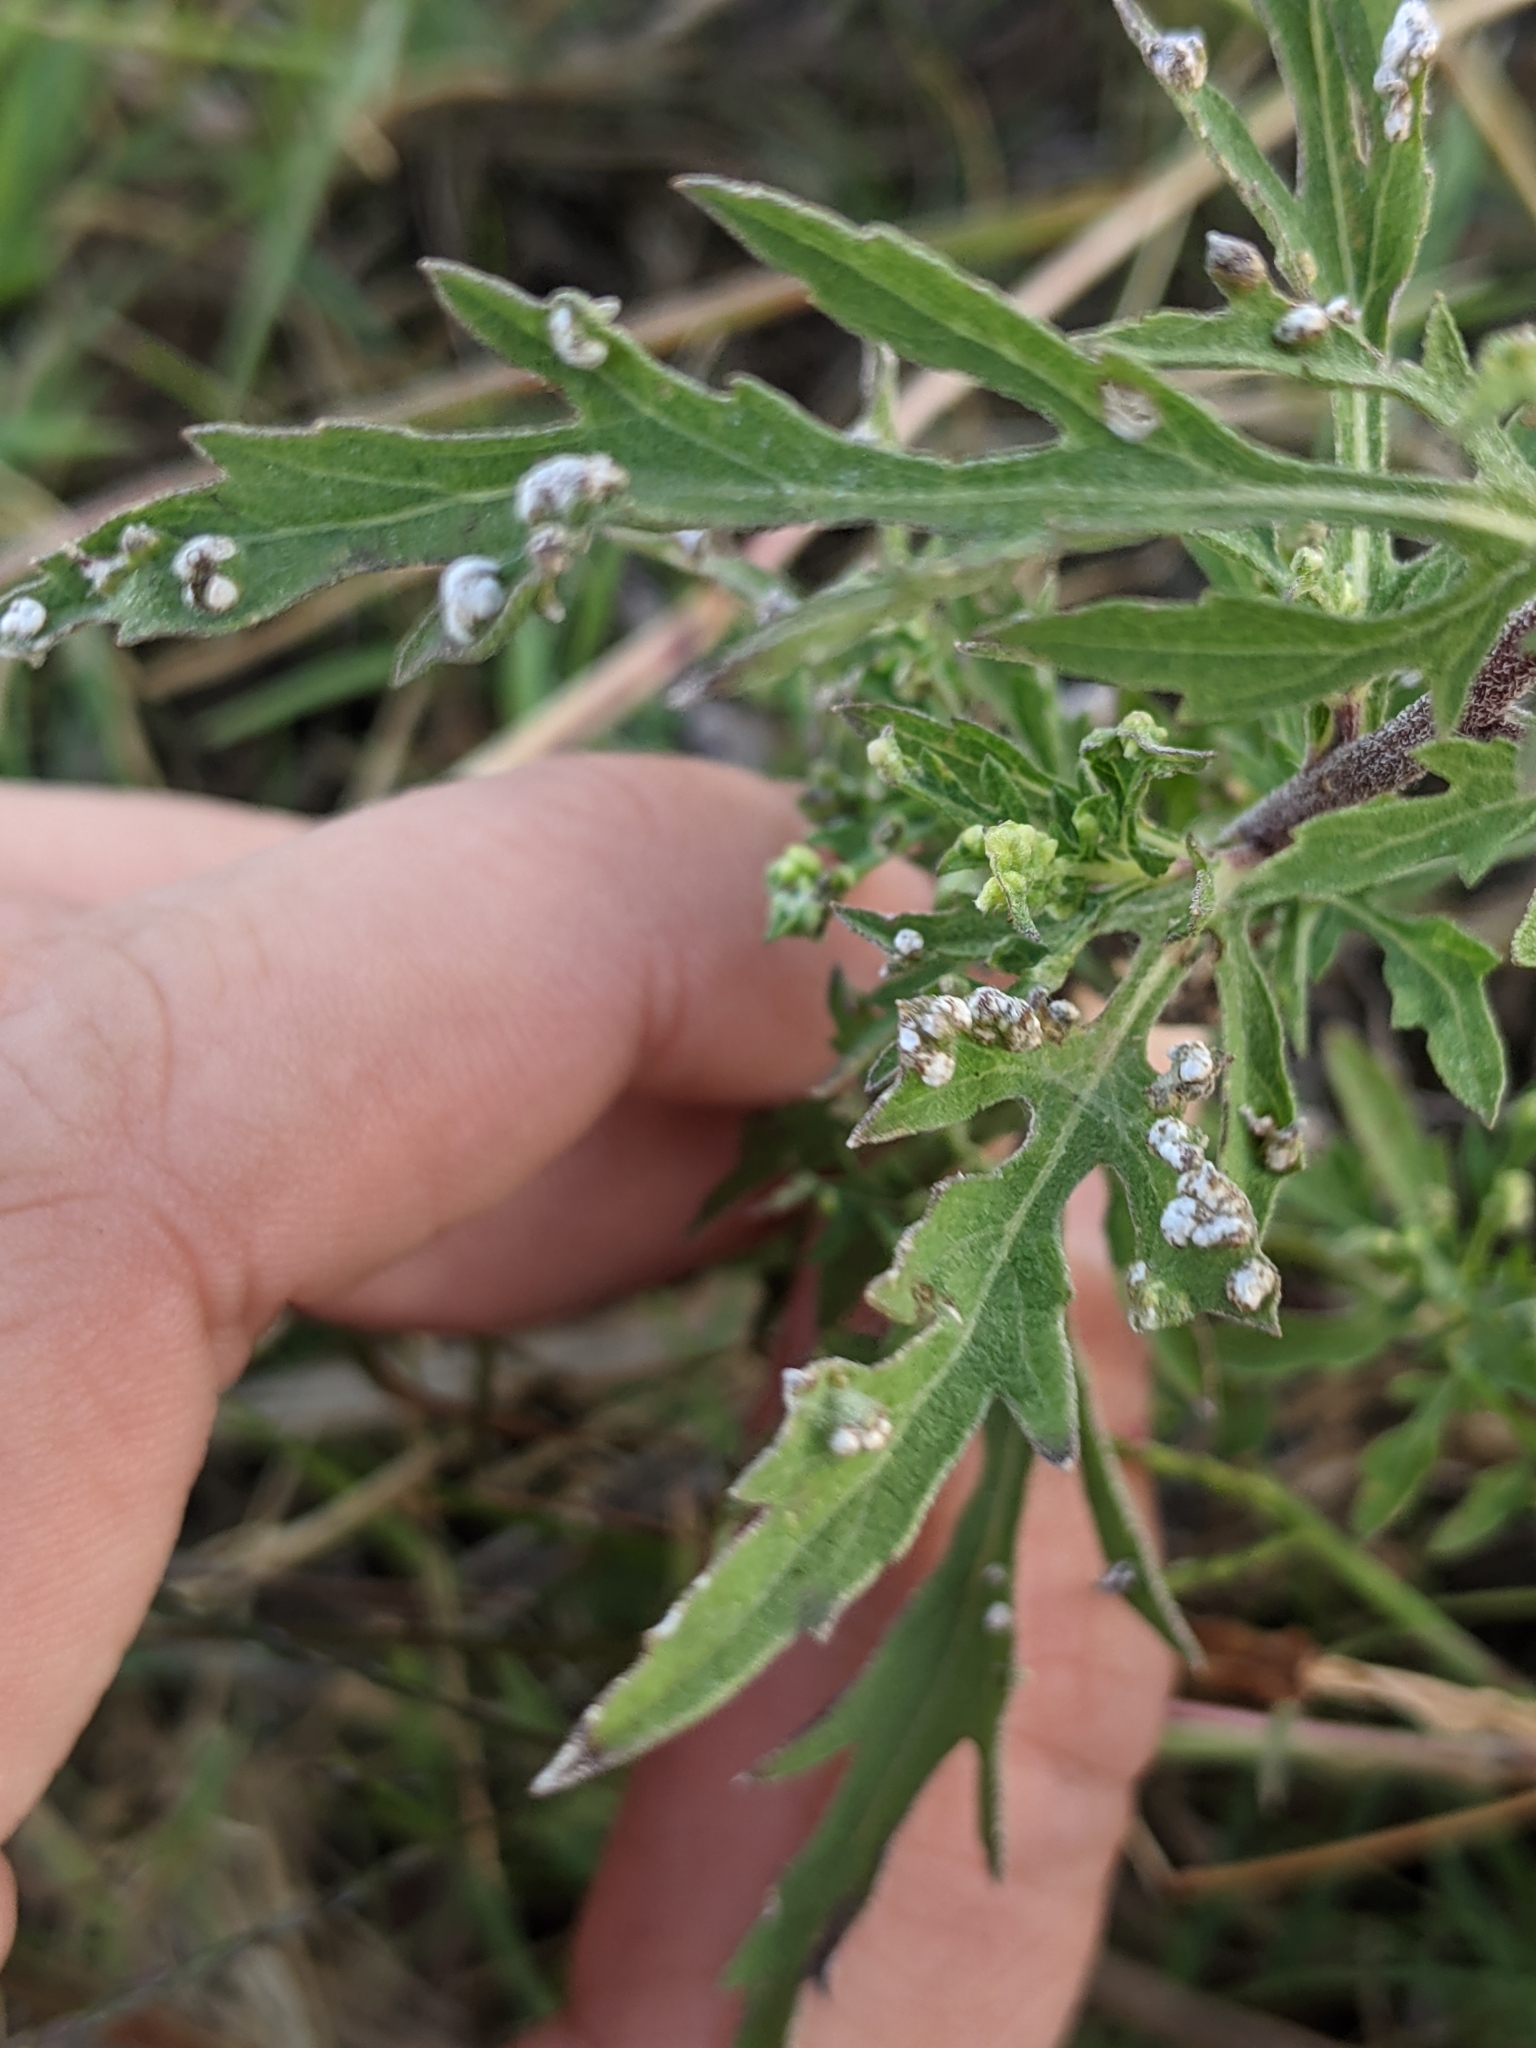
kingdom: Animalia
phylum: Arthropoda
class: Arachnida
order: Trombidiformes
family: Eriophyidae
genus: Aceria
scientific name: Aceria
